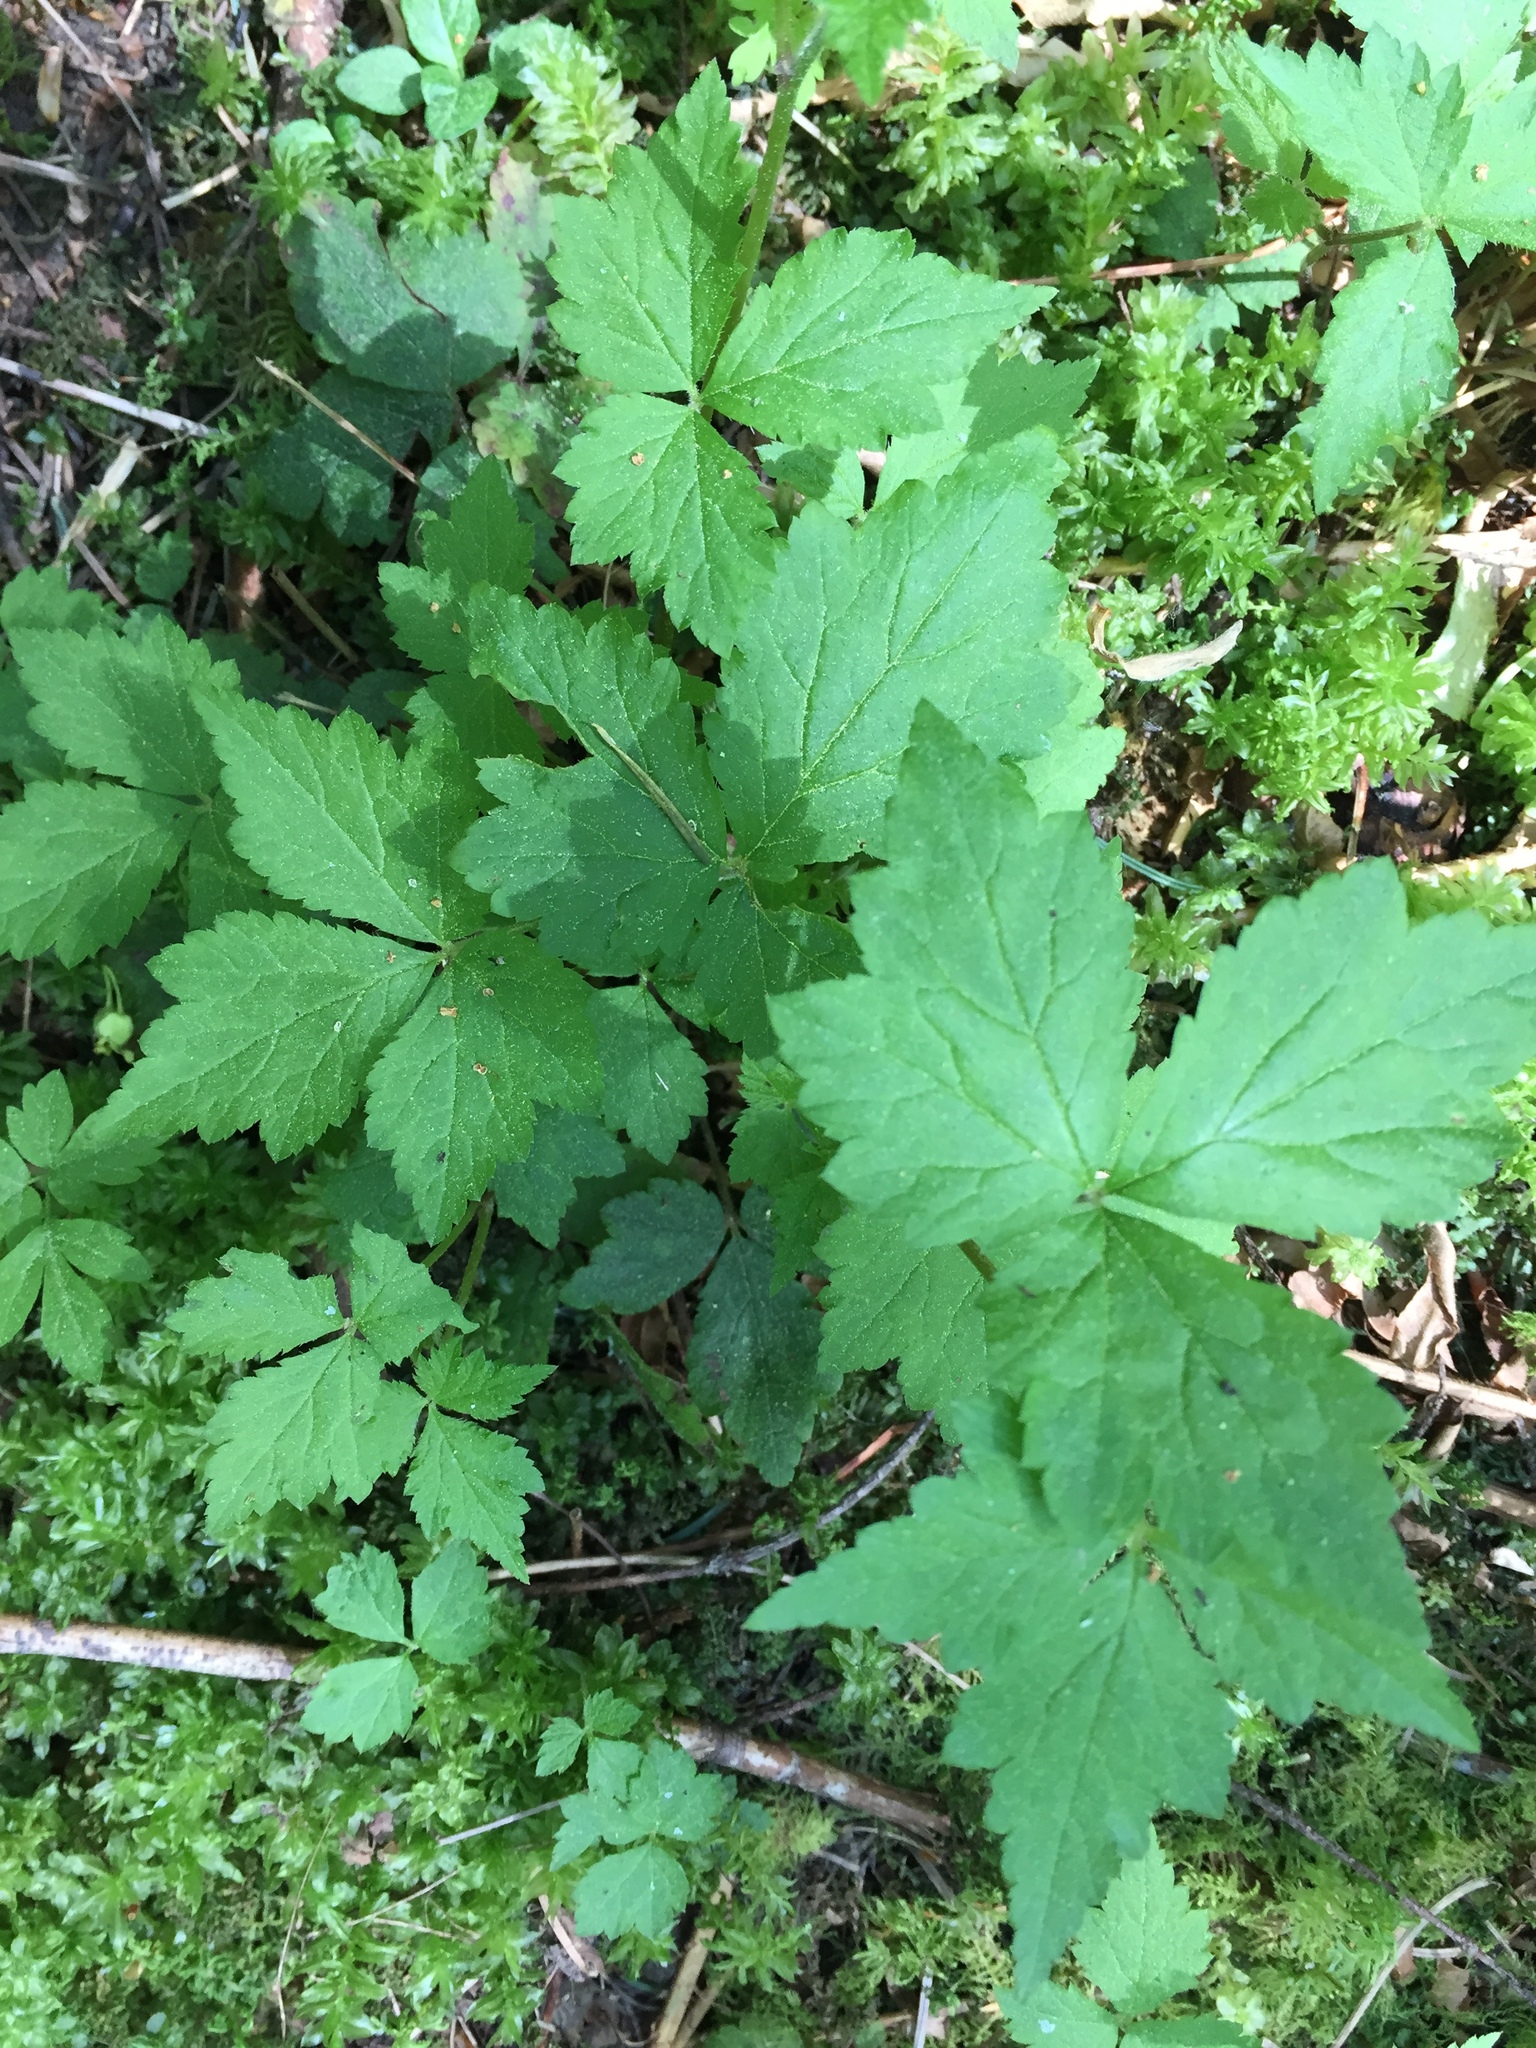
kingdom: Plantae
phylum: Tracheophyta
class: Magnoliopsida
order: Saxifragales
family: Saxifragaceae
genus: Tiarella
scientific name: Tiarella trifoliata
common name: Sugar-scoop
